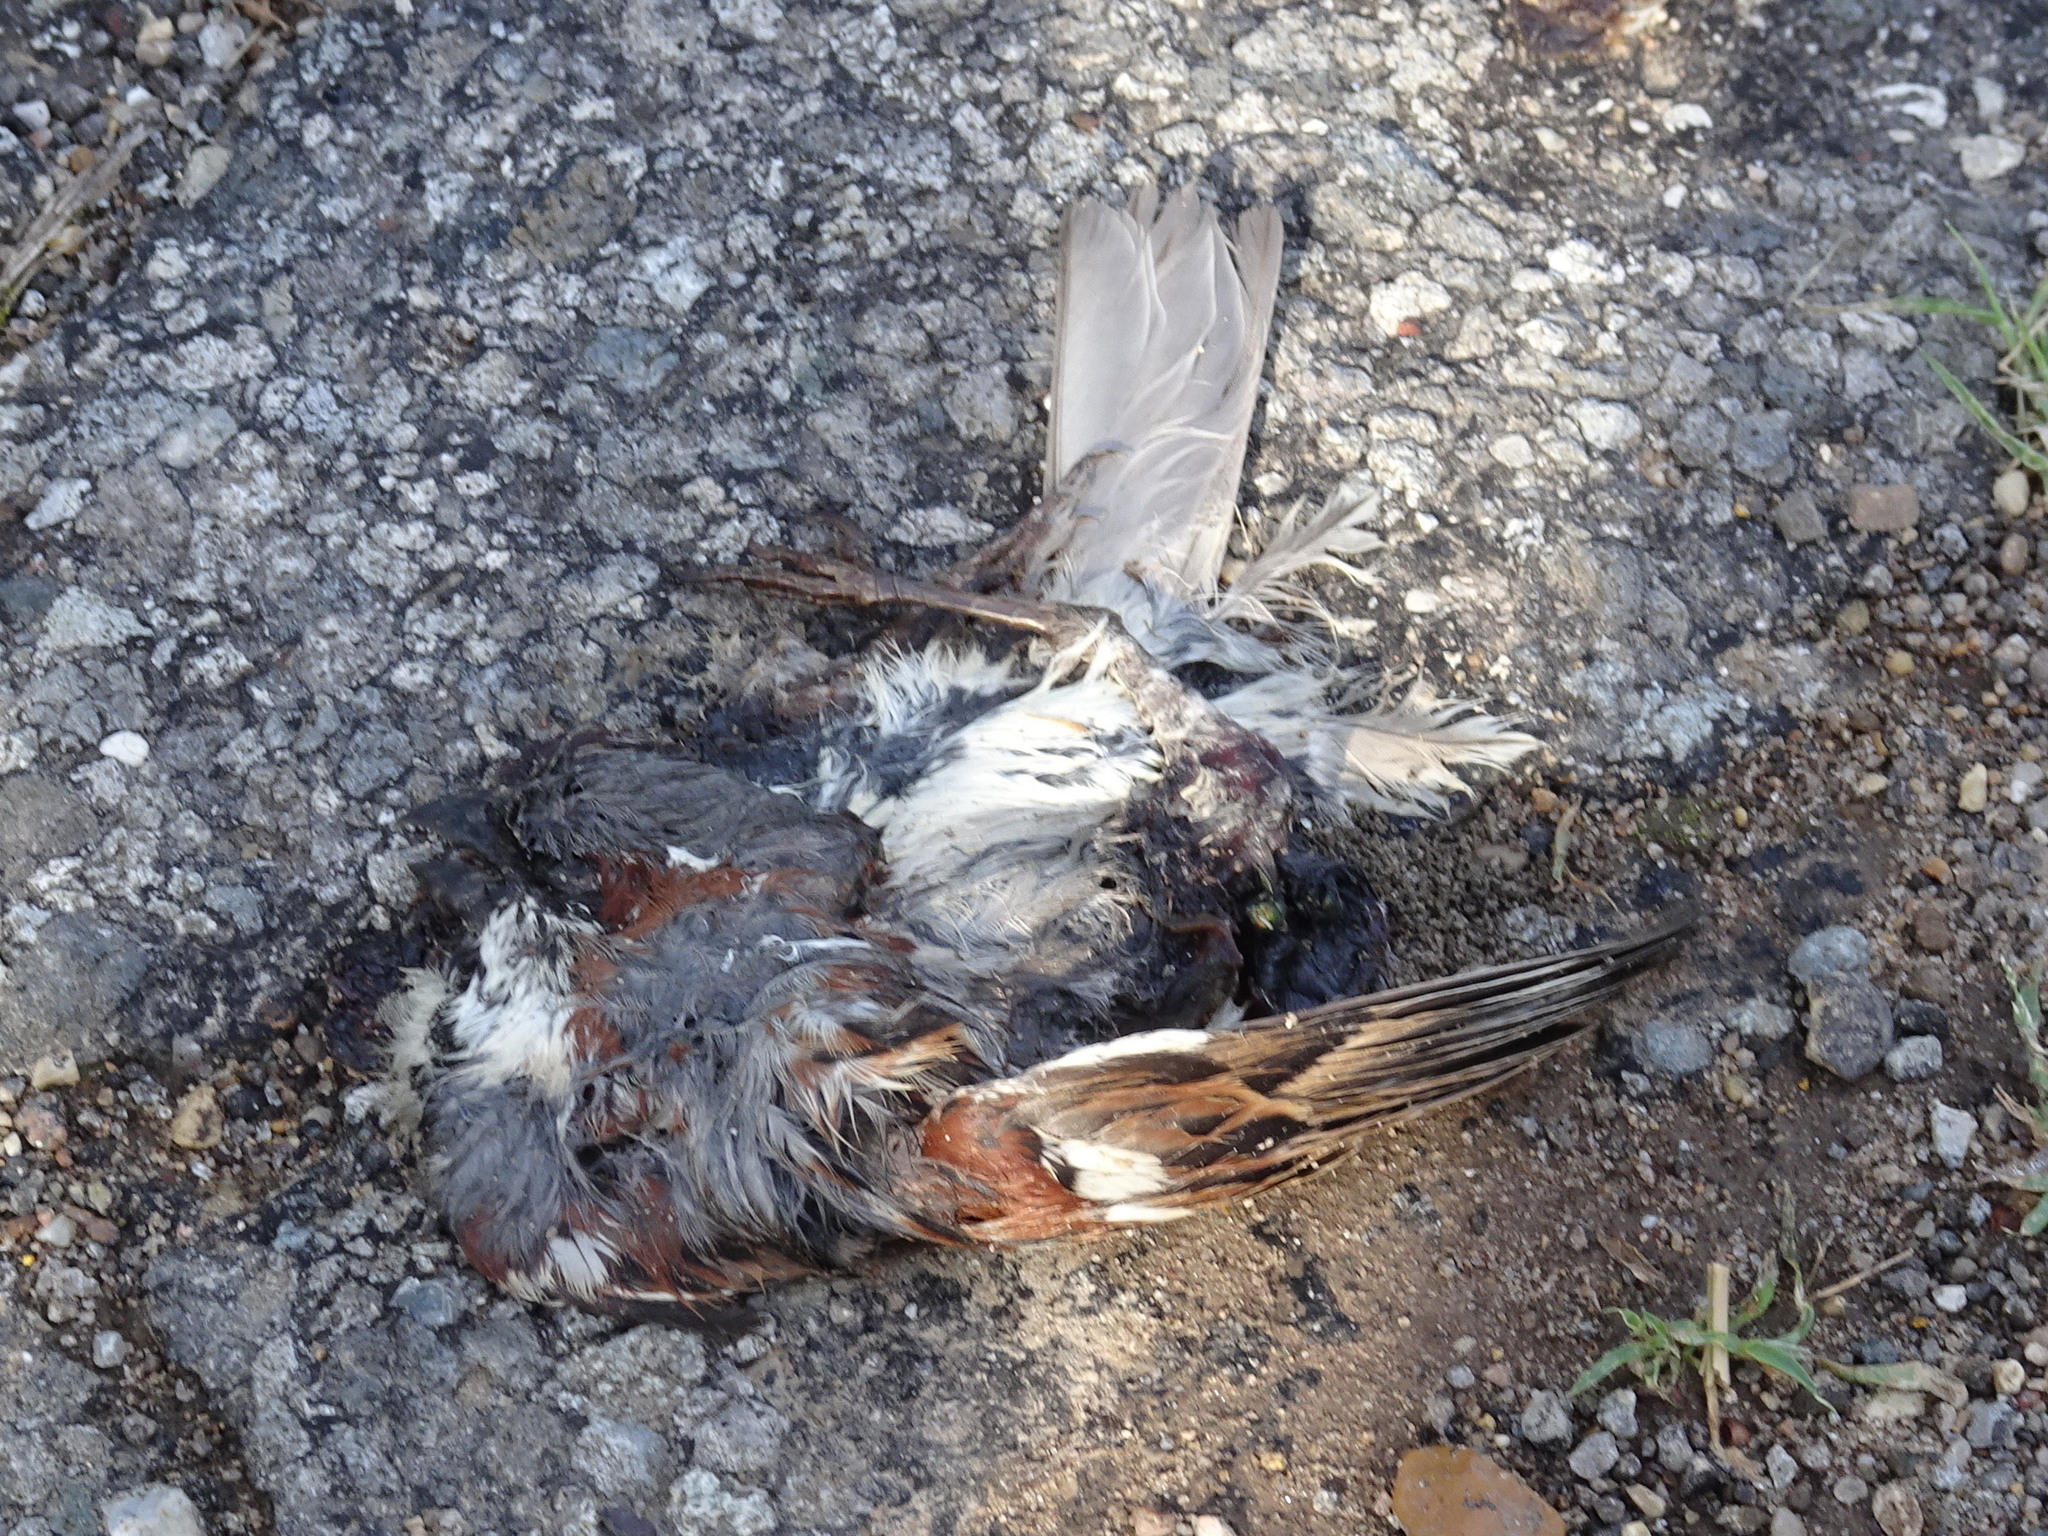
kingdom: Animalia
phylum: Chordata
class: Aves
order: Passeriformes
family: Passeridae
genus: Passer
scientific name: Passer domesticus
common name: House sparrow
